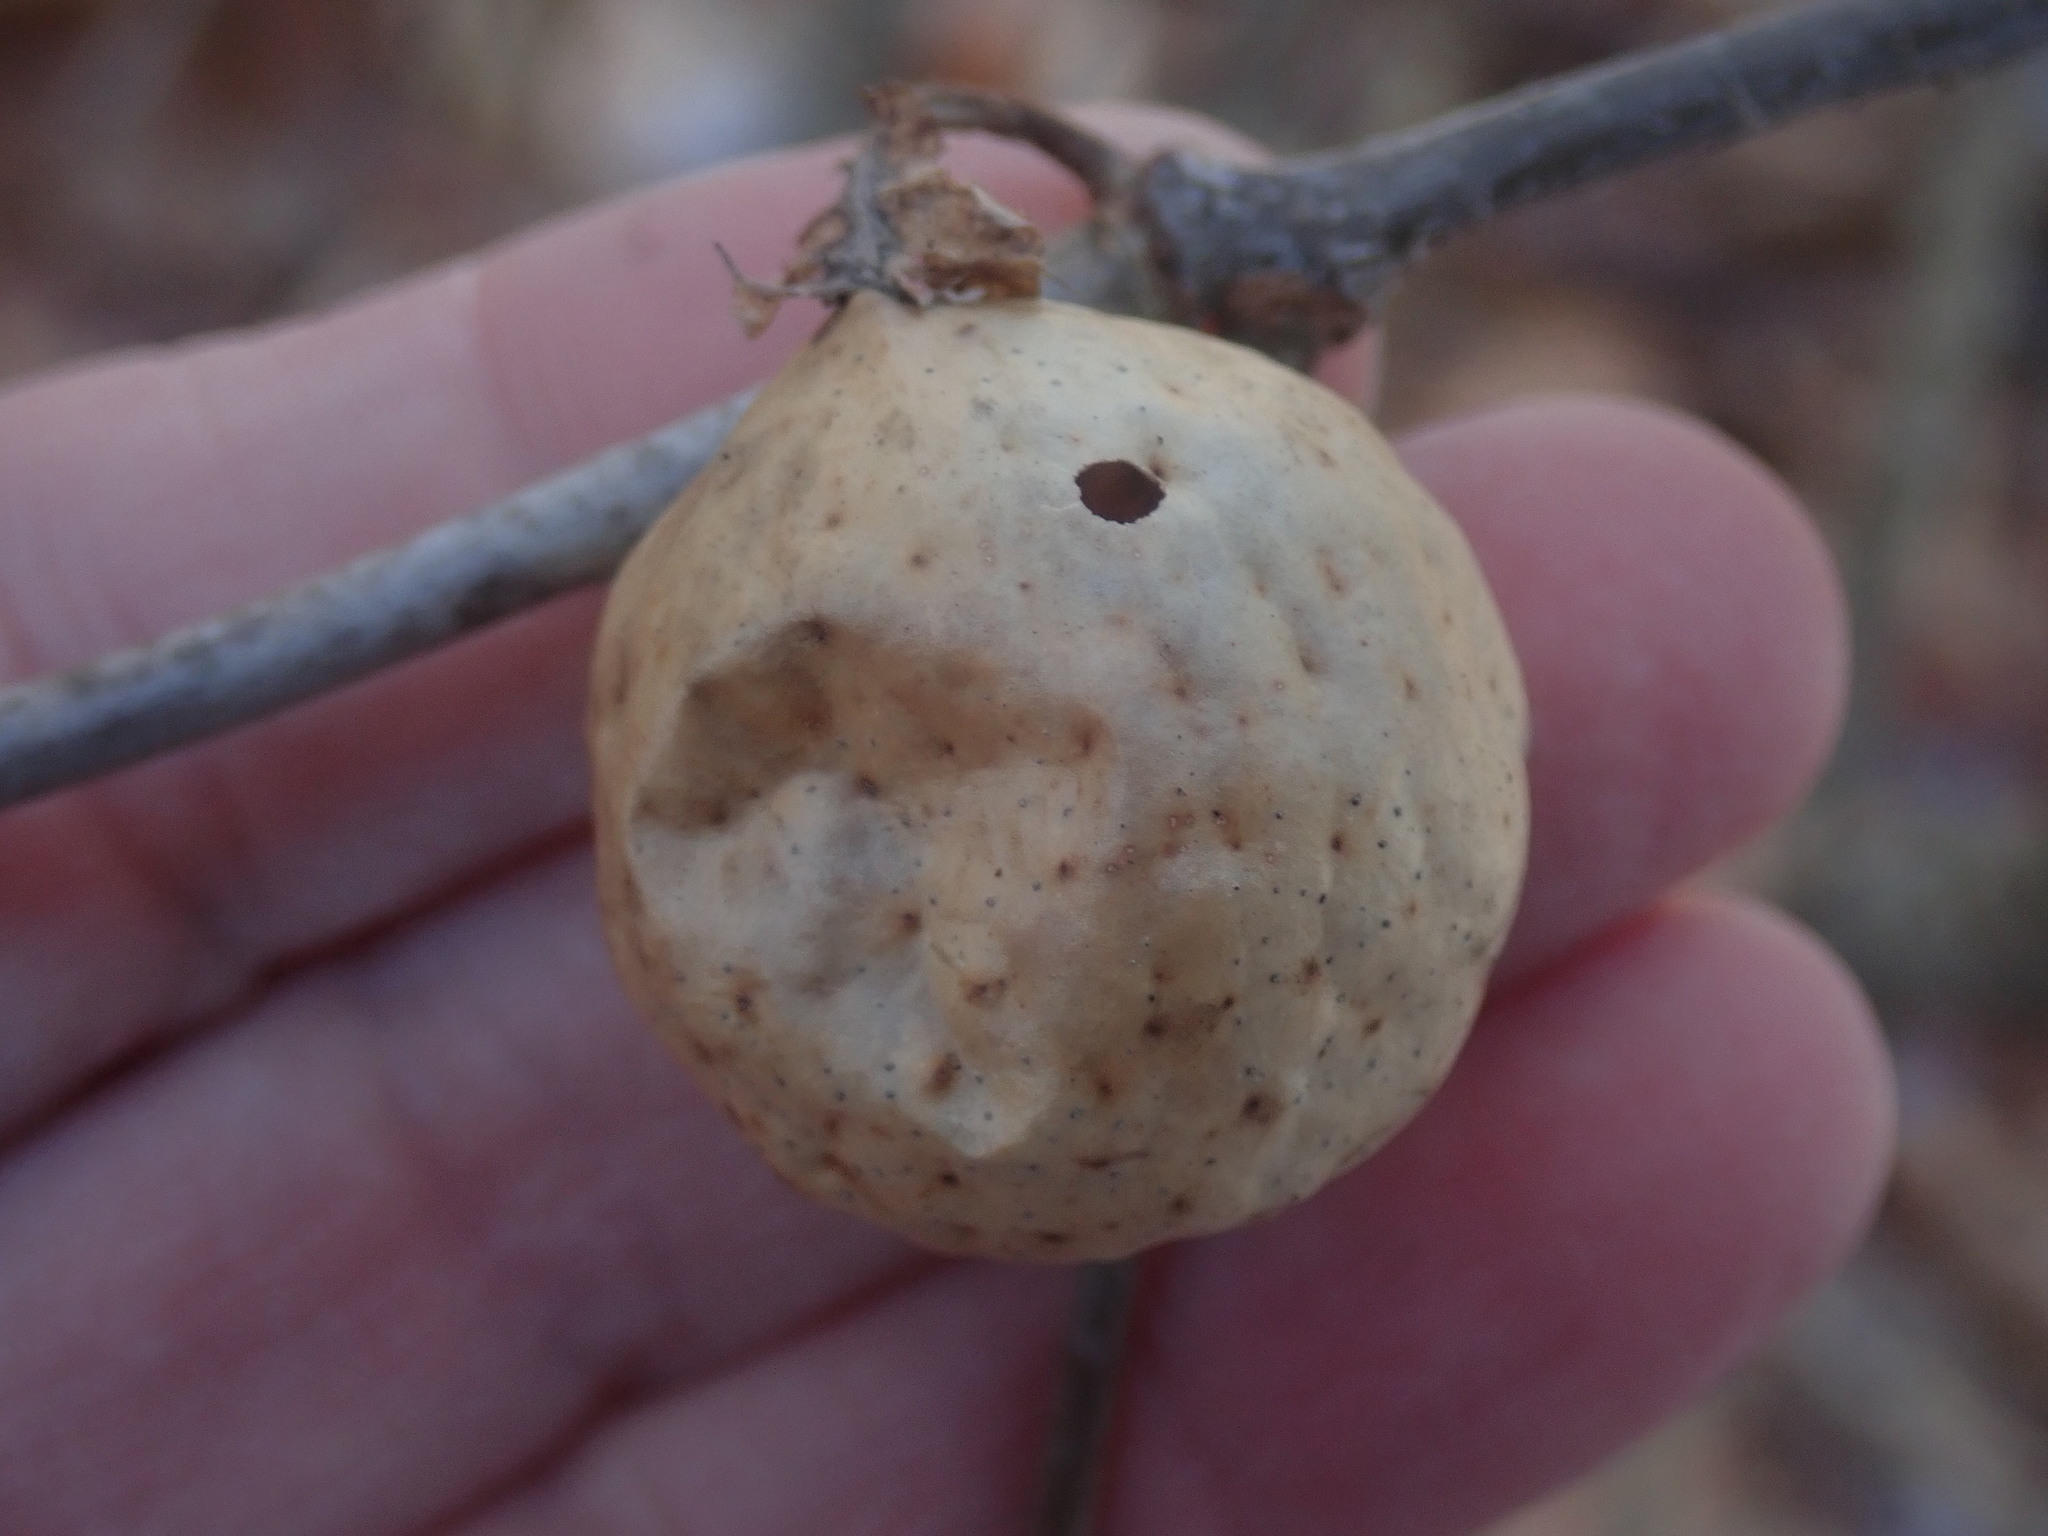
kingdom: Animalia
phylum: Arthropoda
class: Insecta
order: Hymenoptera
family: Cynipidae
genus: Amphibolips
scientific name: Amphibolips
